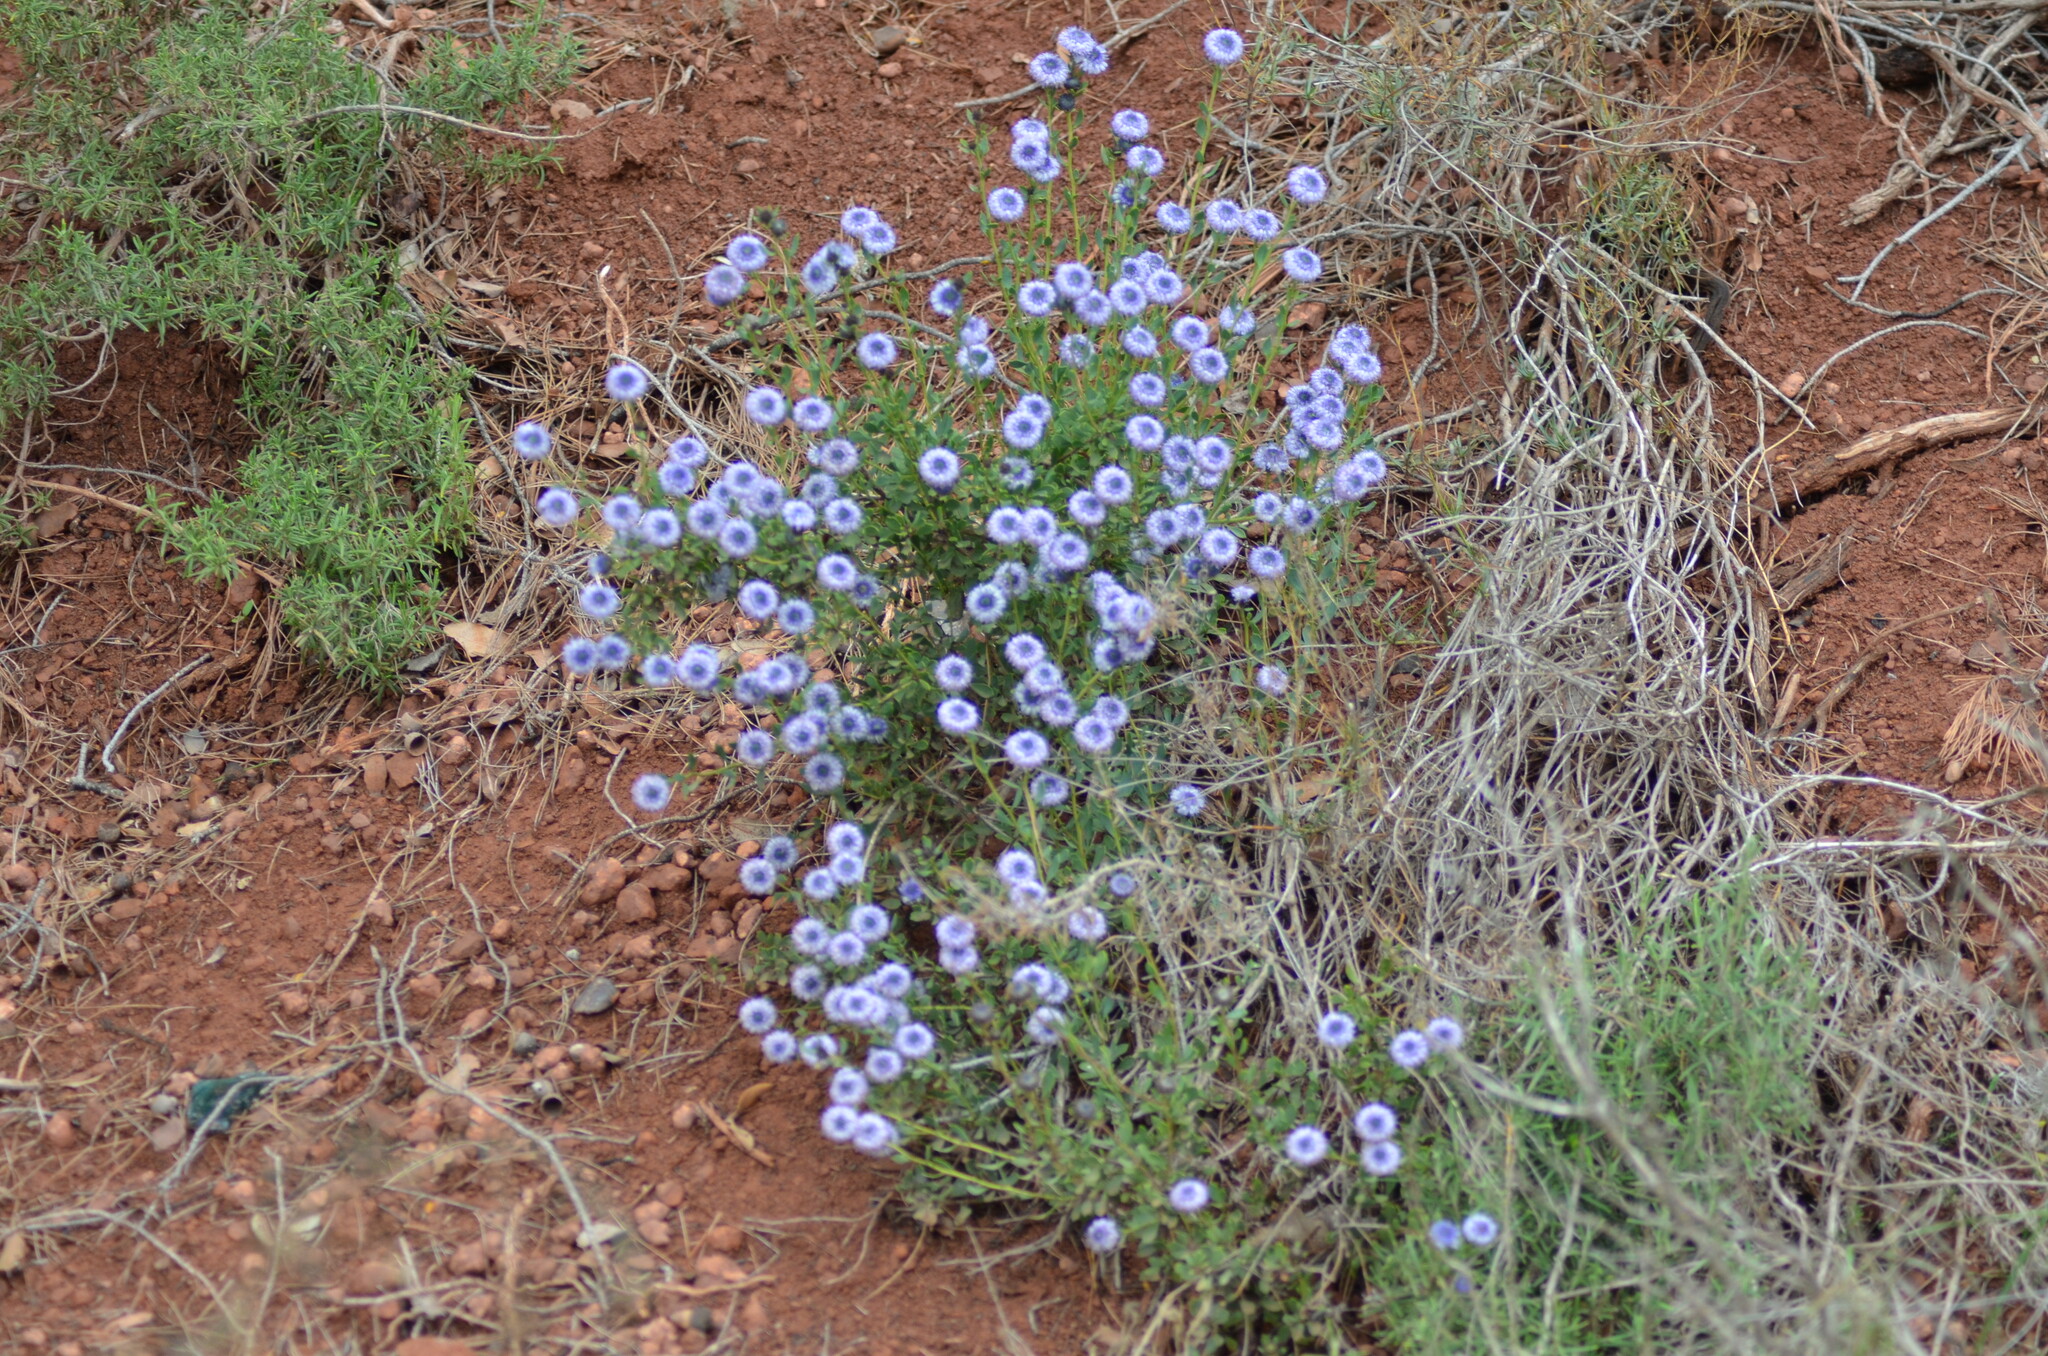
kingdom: Plantae
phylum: Tracheophyta
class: Magnoliopsida
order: Lamiales
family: Plantaginaceae
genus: Globularia
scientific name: Globularia alypum
